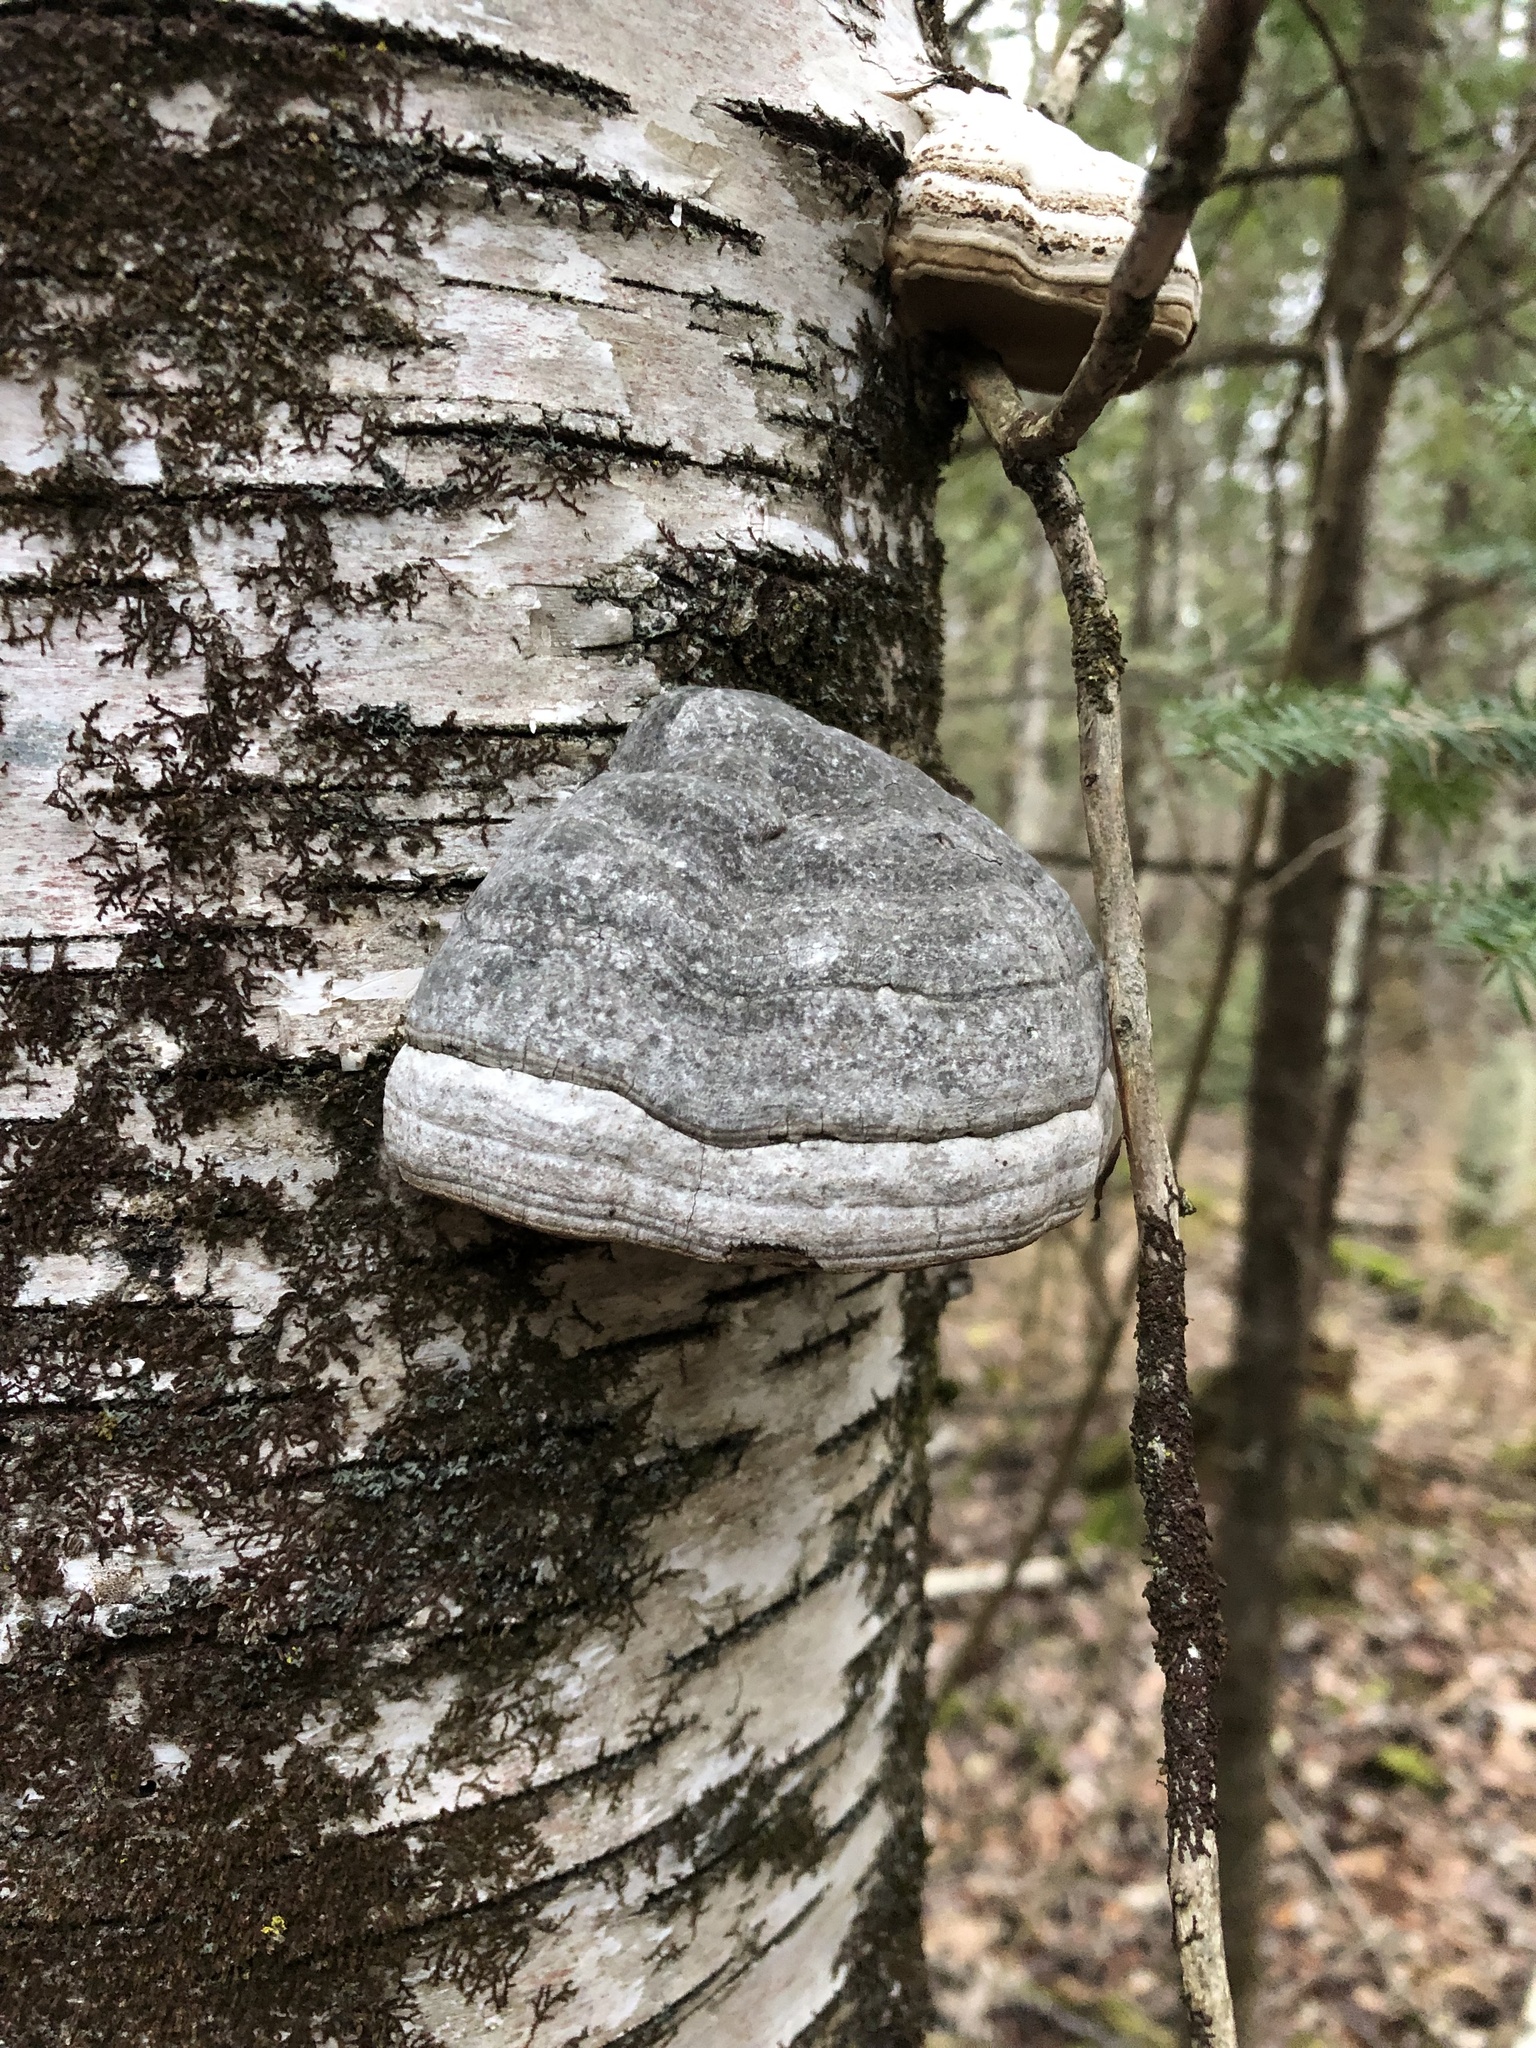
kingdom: Fungi
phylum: Basidiomycota
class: Agaricomycetes
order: Polyporales
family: Polyporaceae
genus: Fomes
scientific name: Fomes fomentarius
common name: Hoof fungus
